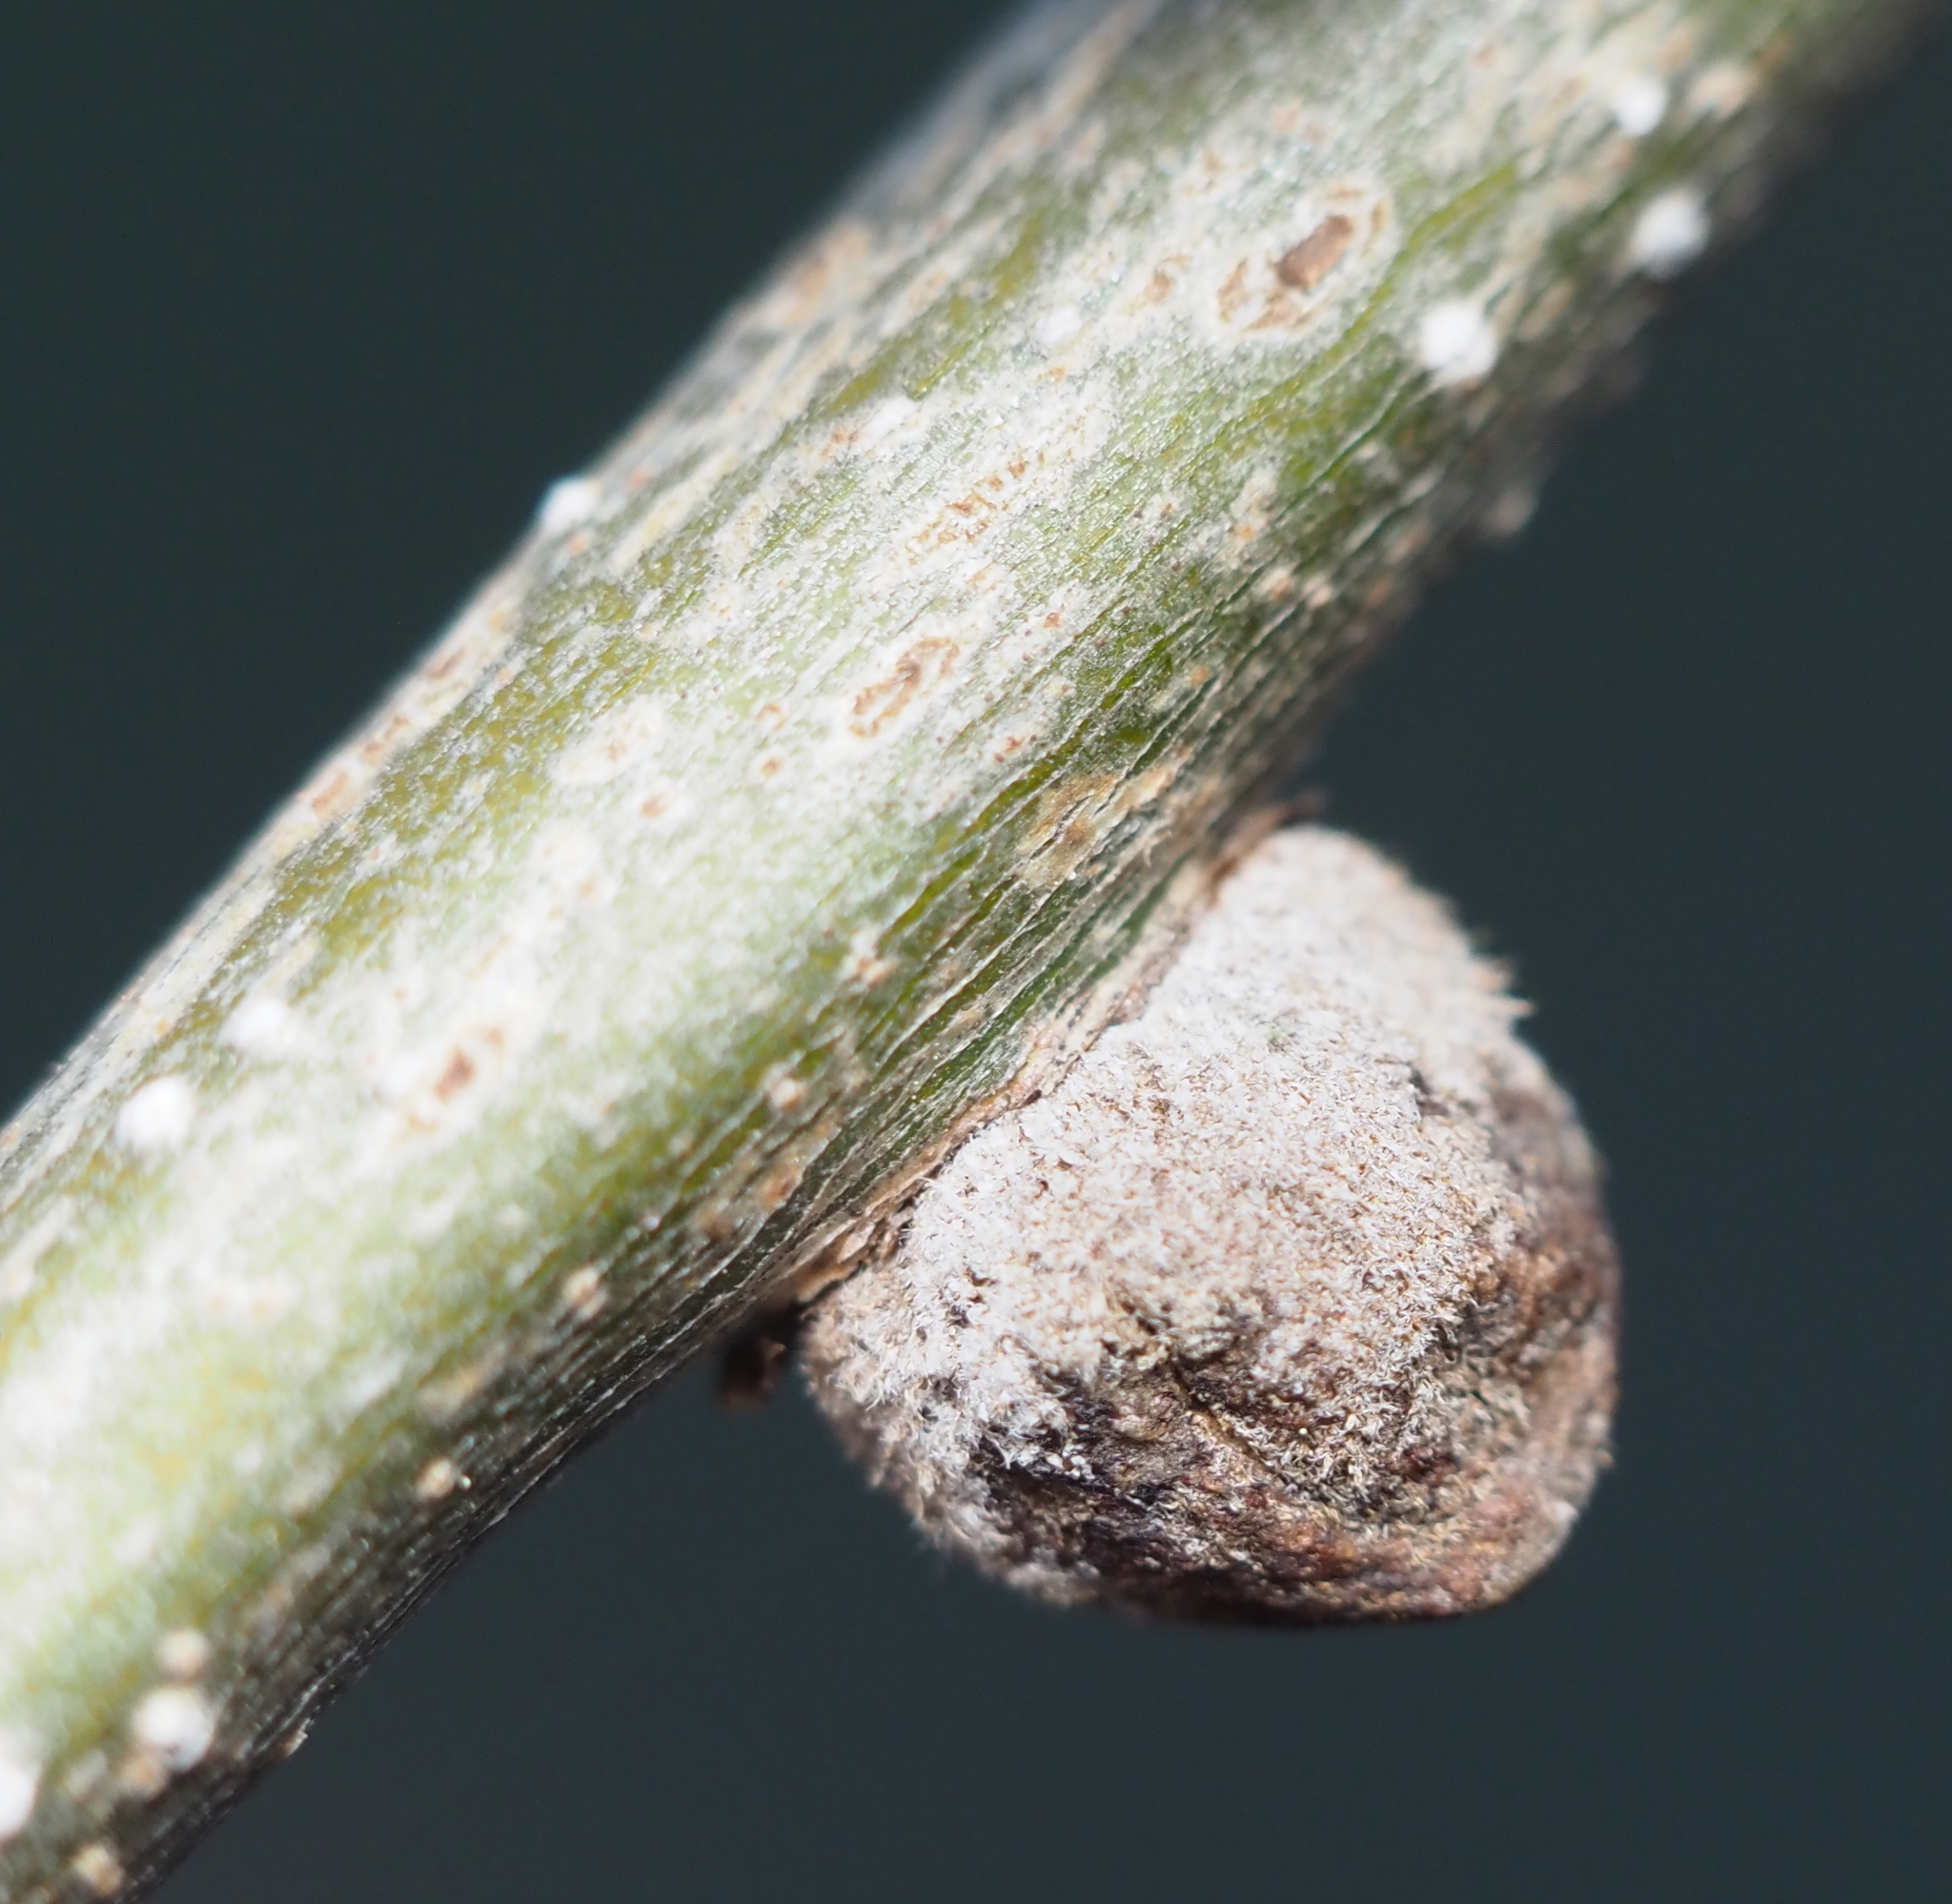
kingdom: Animalia
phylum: Arthropoda
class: Insecta
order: Hymenoptera
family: Cynipidae
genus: Disholcaspis
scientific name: Disholcaspis
